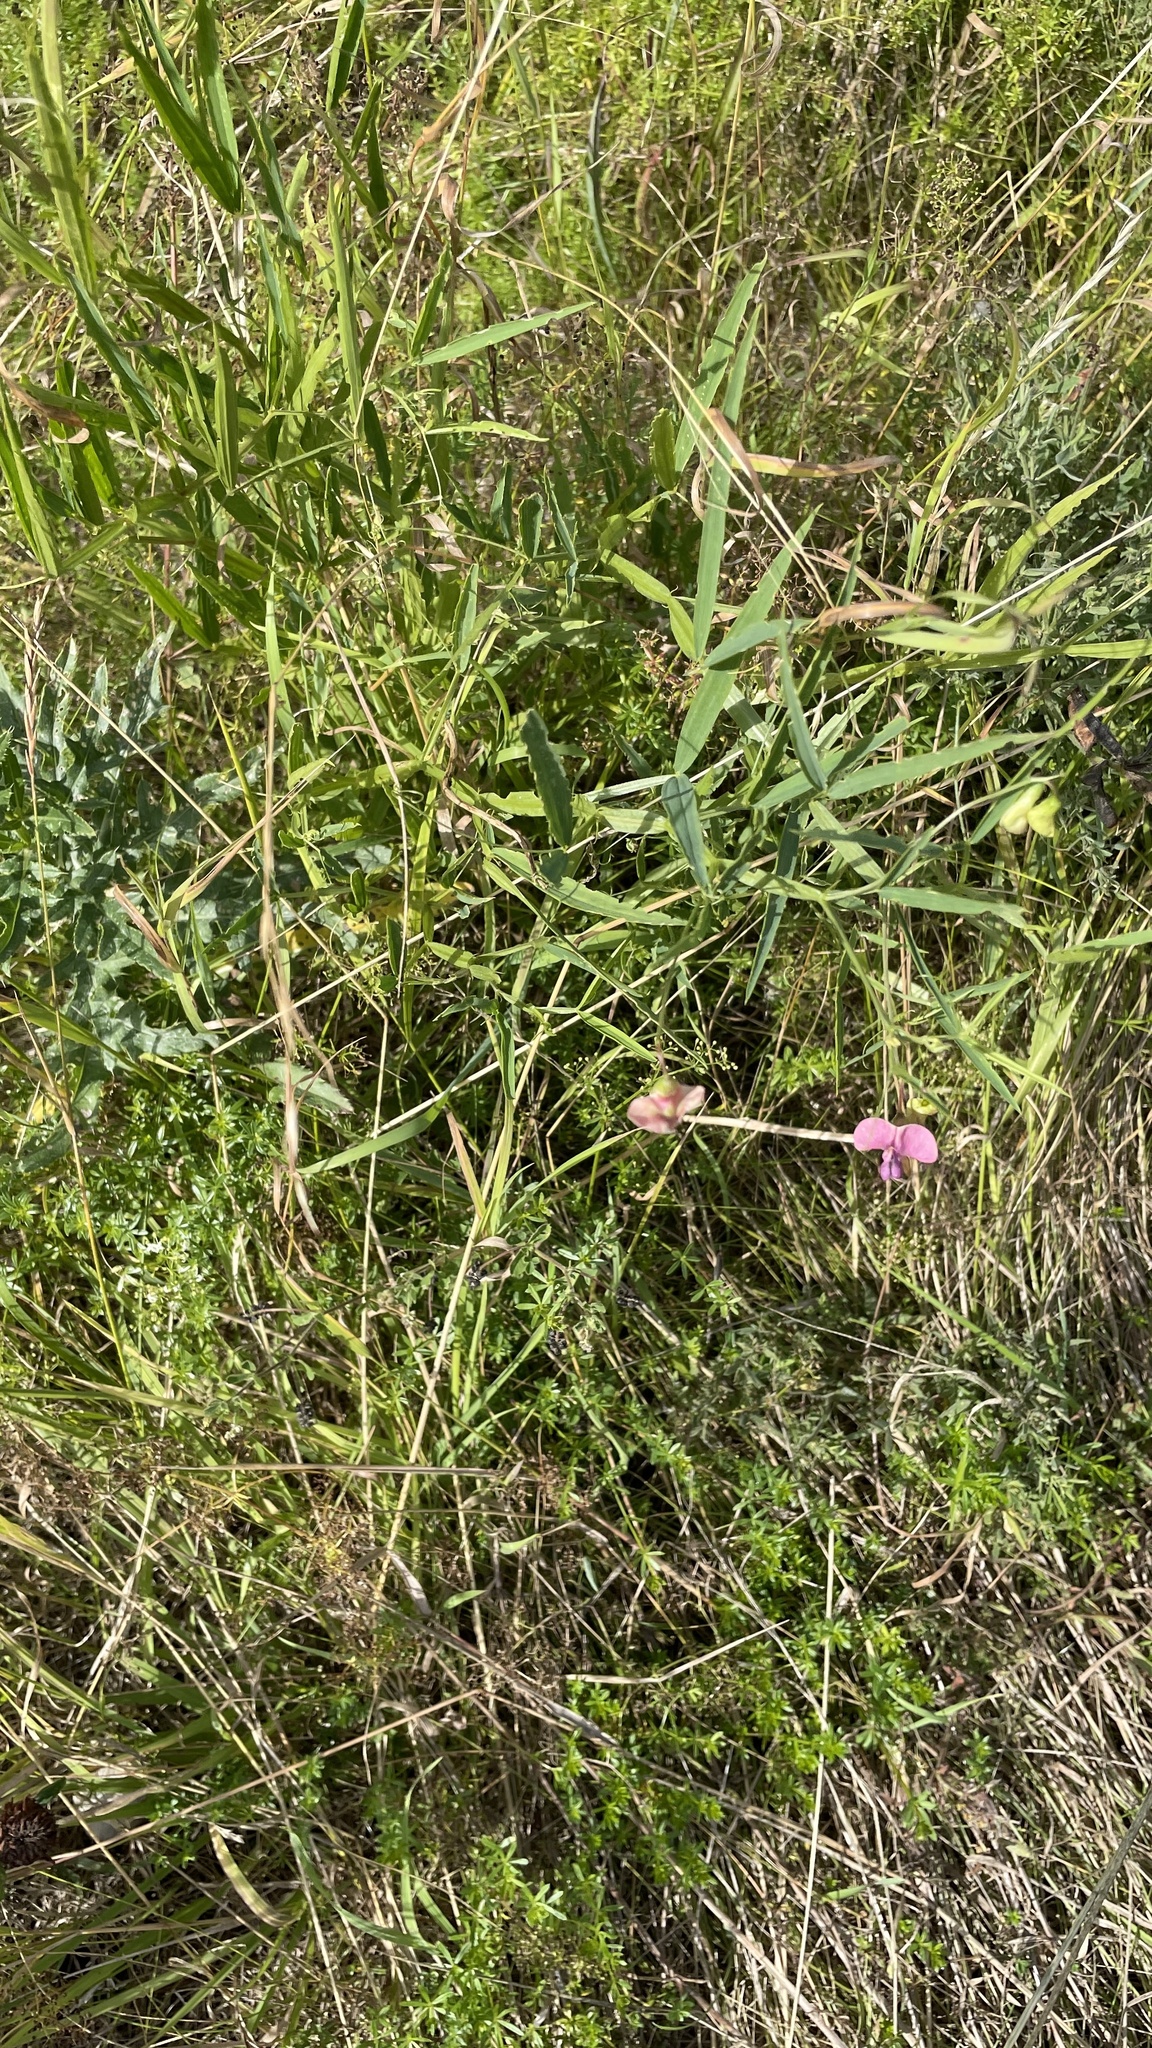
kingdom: Plantae
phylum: Tracheophyta
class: Magnoliopsida
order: Fabales
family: Fabaceae
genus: Lathyrus
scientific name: Lathyrus sylvestris
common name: Flat pea
